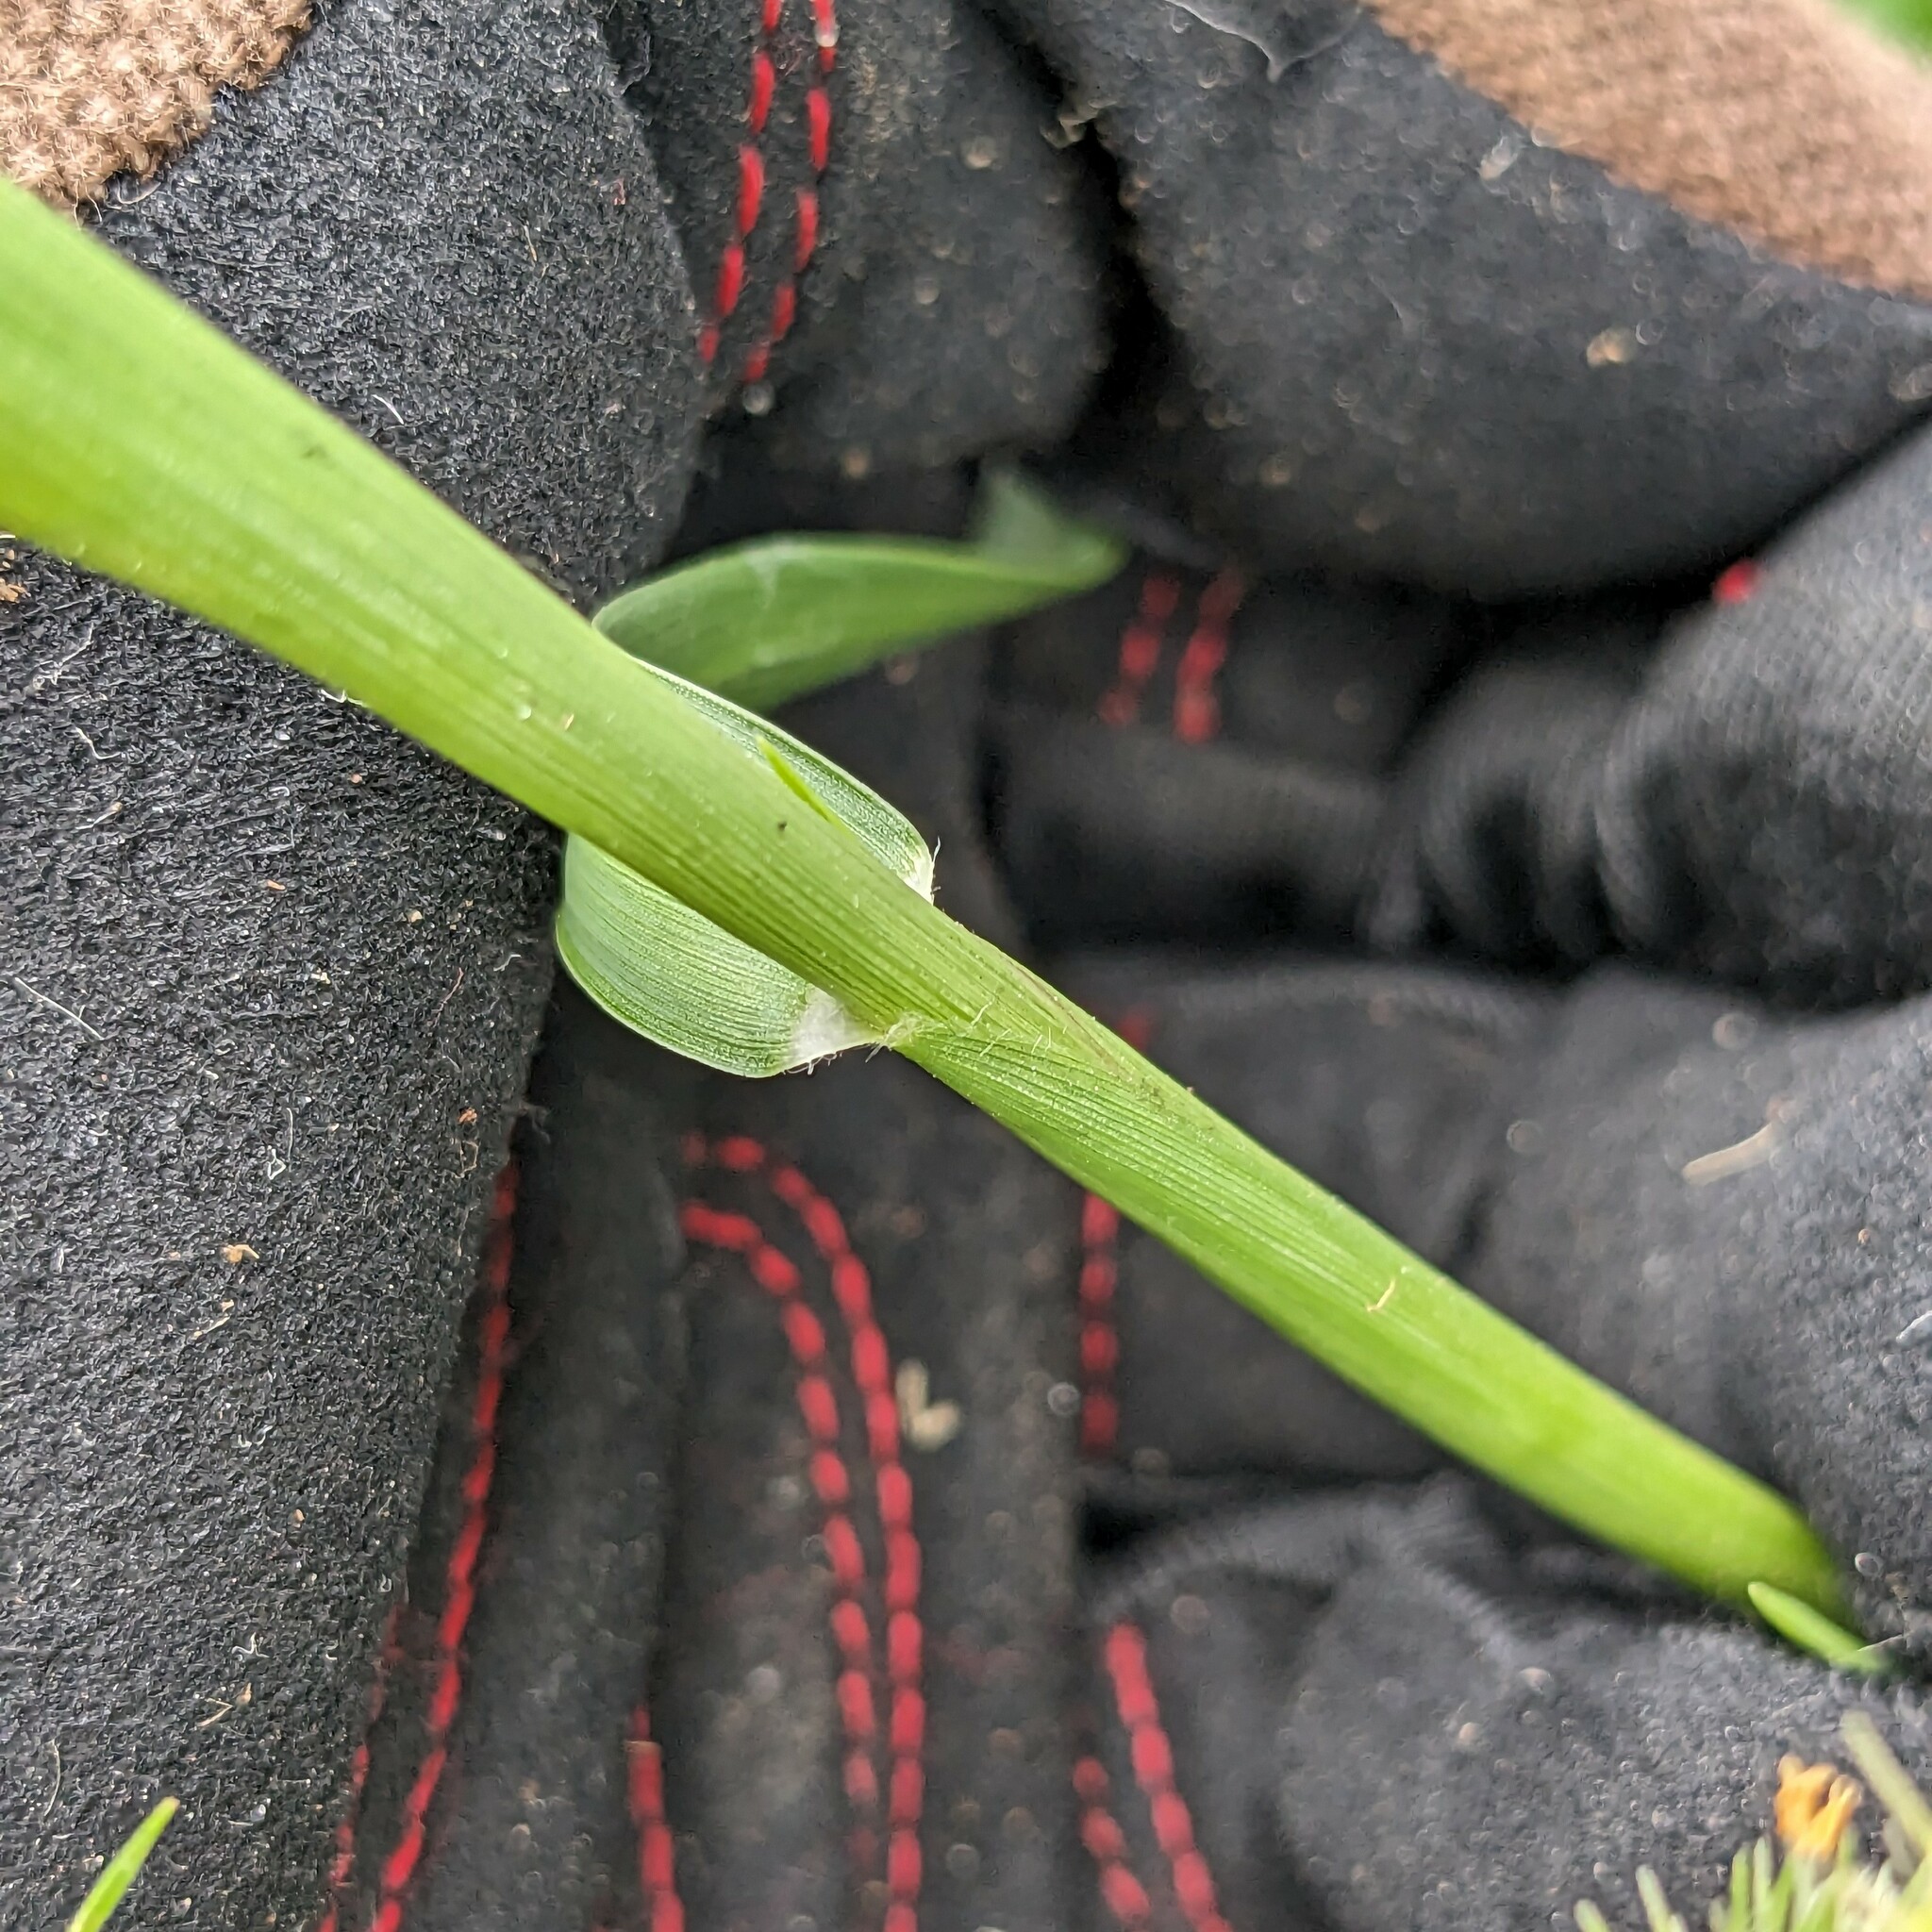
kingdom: Plantae
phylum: Tracheophyta
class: Liliopsida
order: Poales
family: Poaceae
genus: Cenchrus
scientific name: Cenchrus longispinus
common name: Mat sandbur
